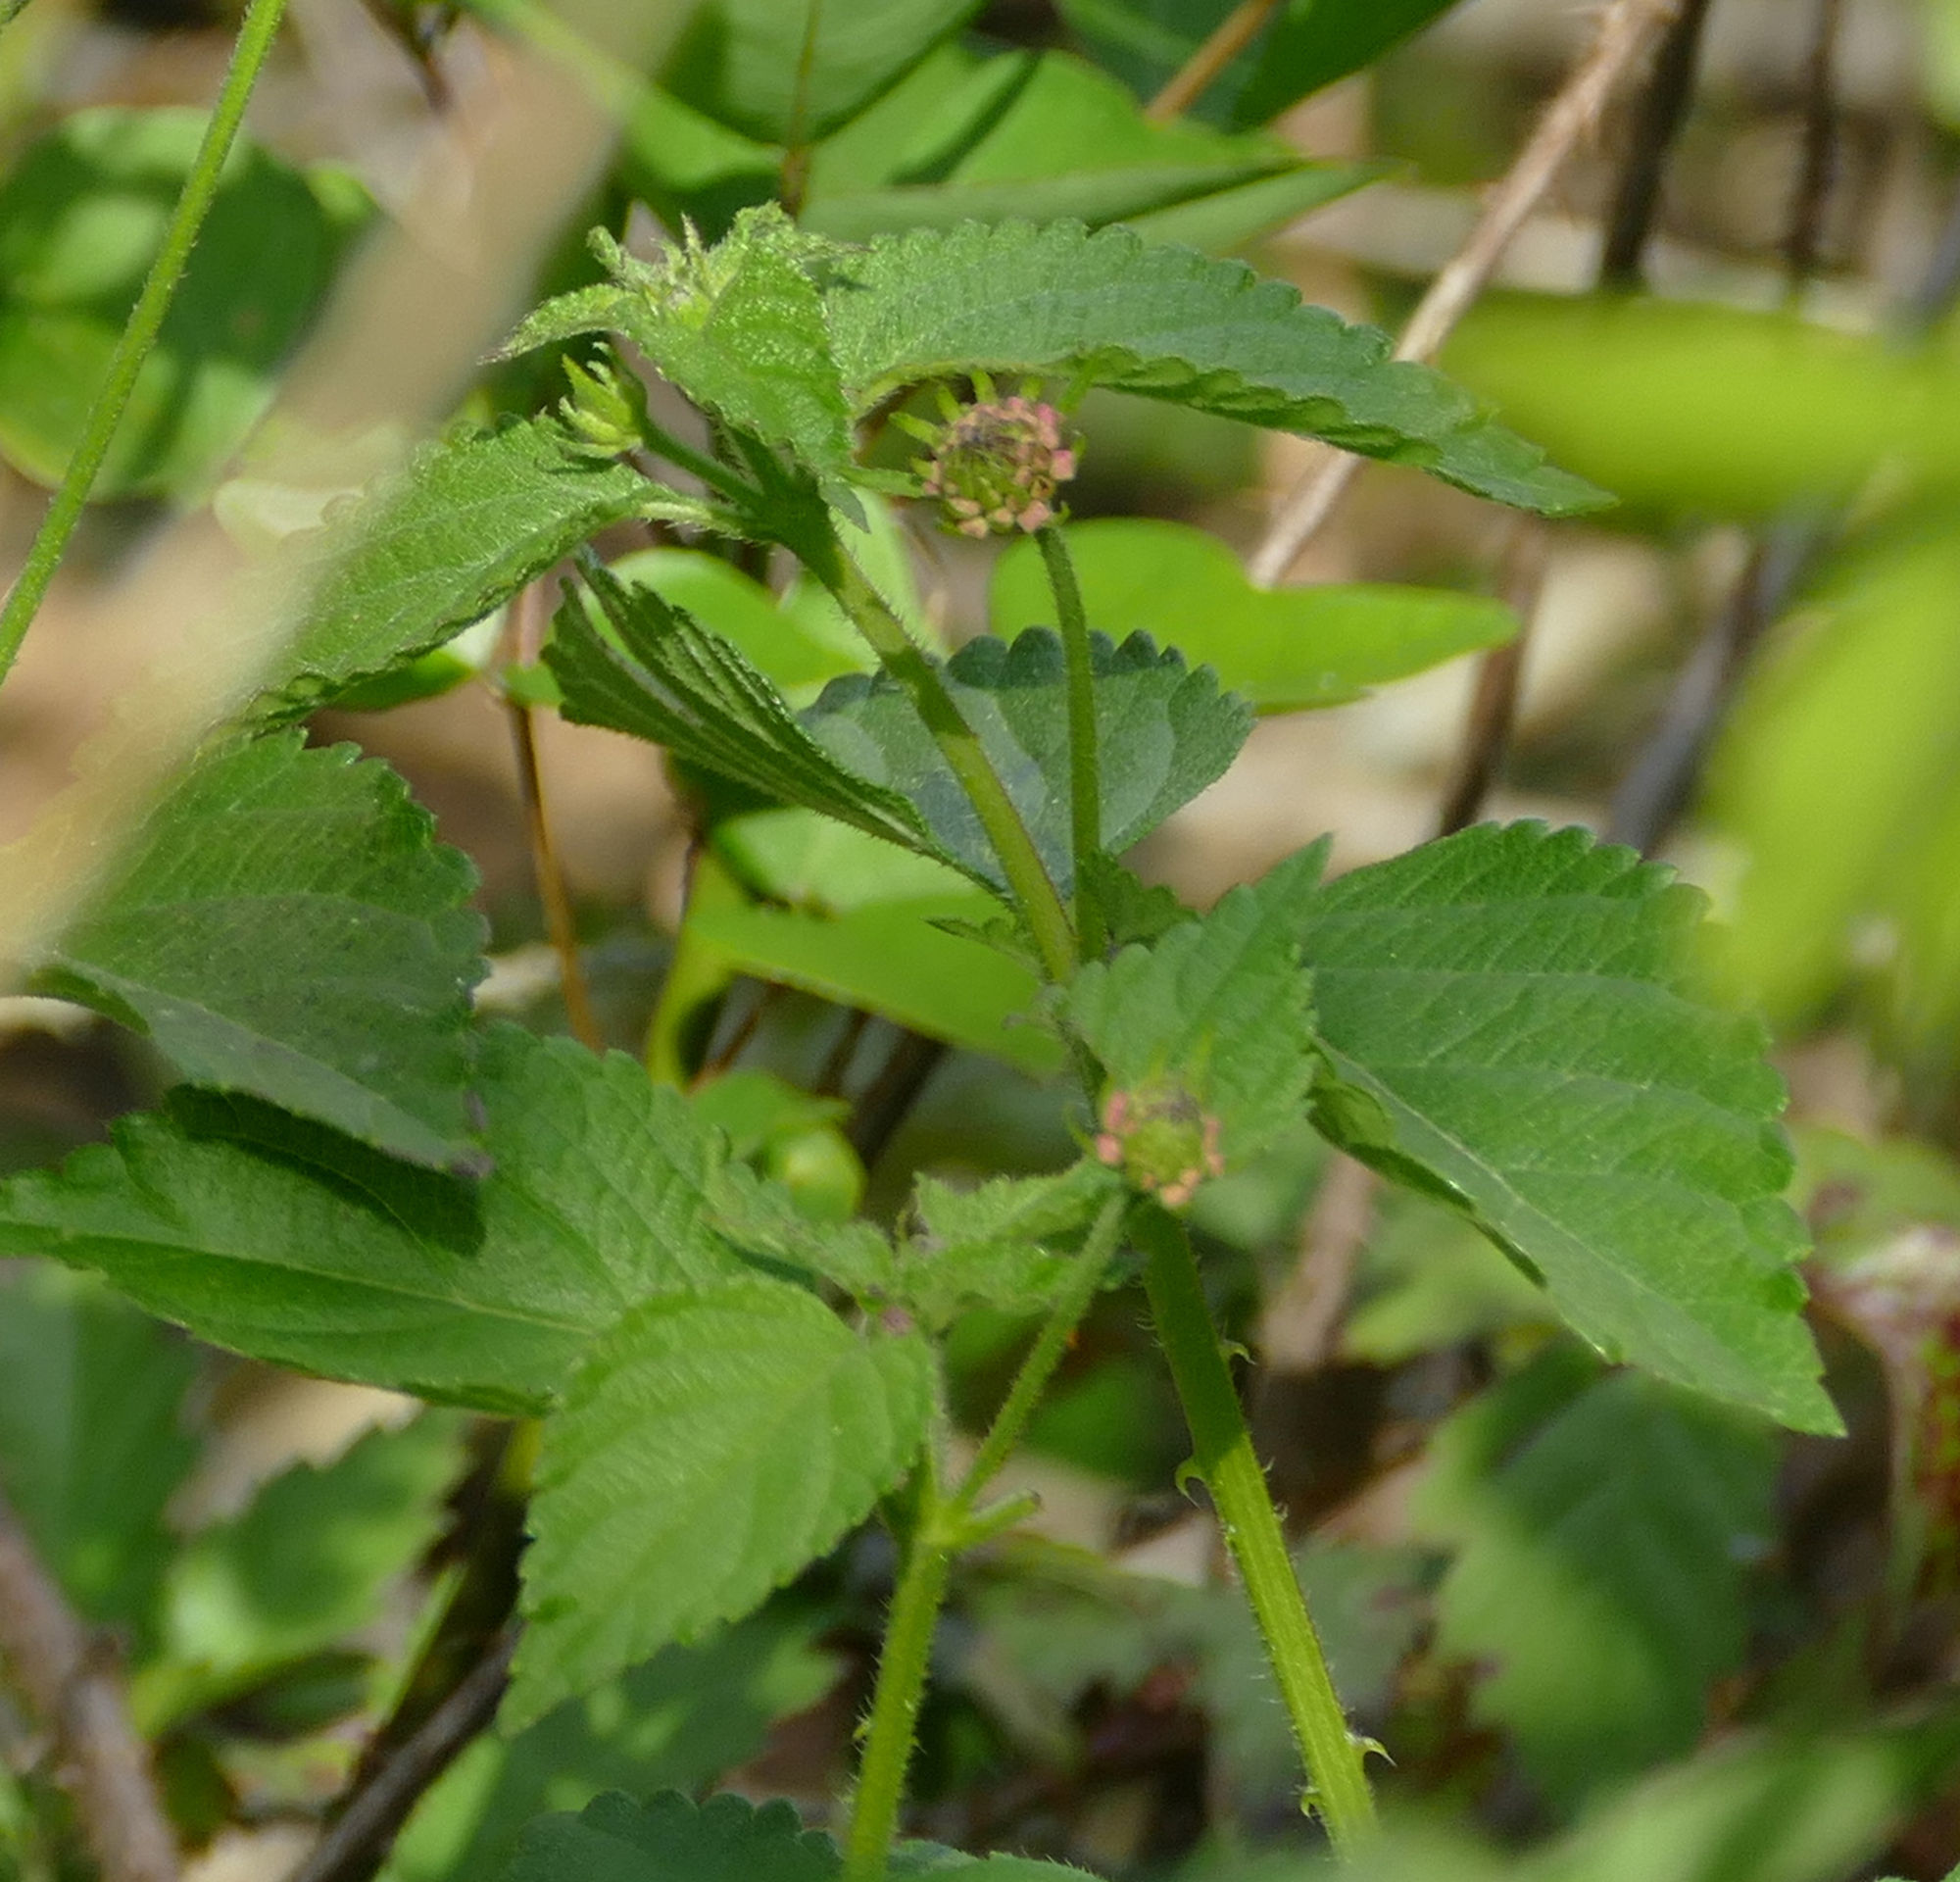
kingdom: Plantae
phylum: Tracheophyta
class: Magnoliopsida
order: Lamiales
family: Verbenaceae
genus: Lantana
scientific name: Lantana strigocamara
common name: Lantana
